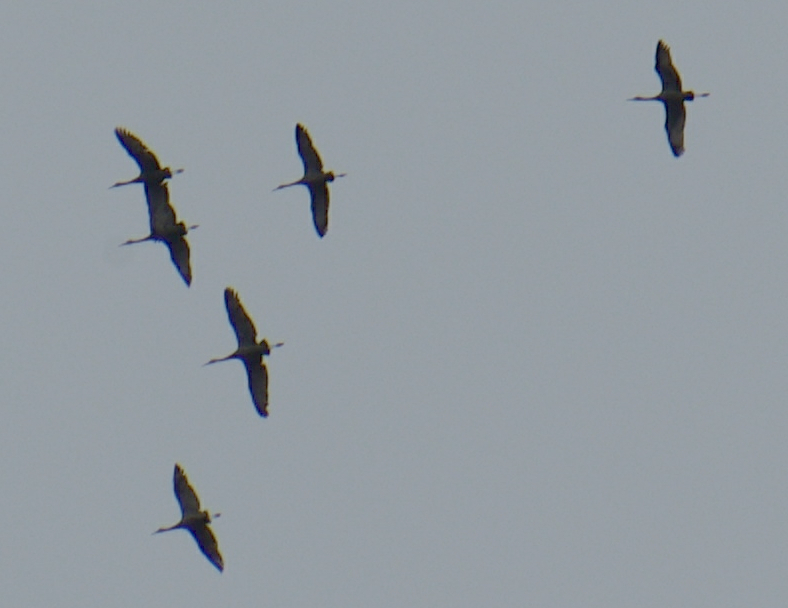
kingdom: Animalia
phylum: Chordata
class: Aves
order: Gruiformes
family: Gruidae
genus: Grus
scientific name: Grus canadensis
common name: Sandhill crane
